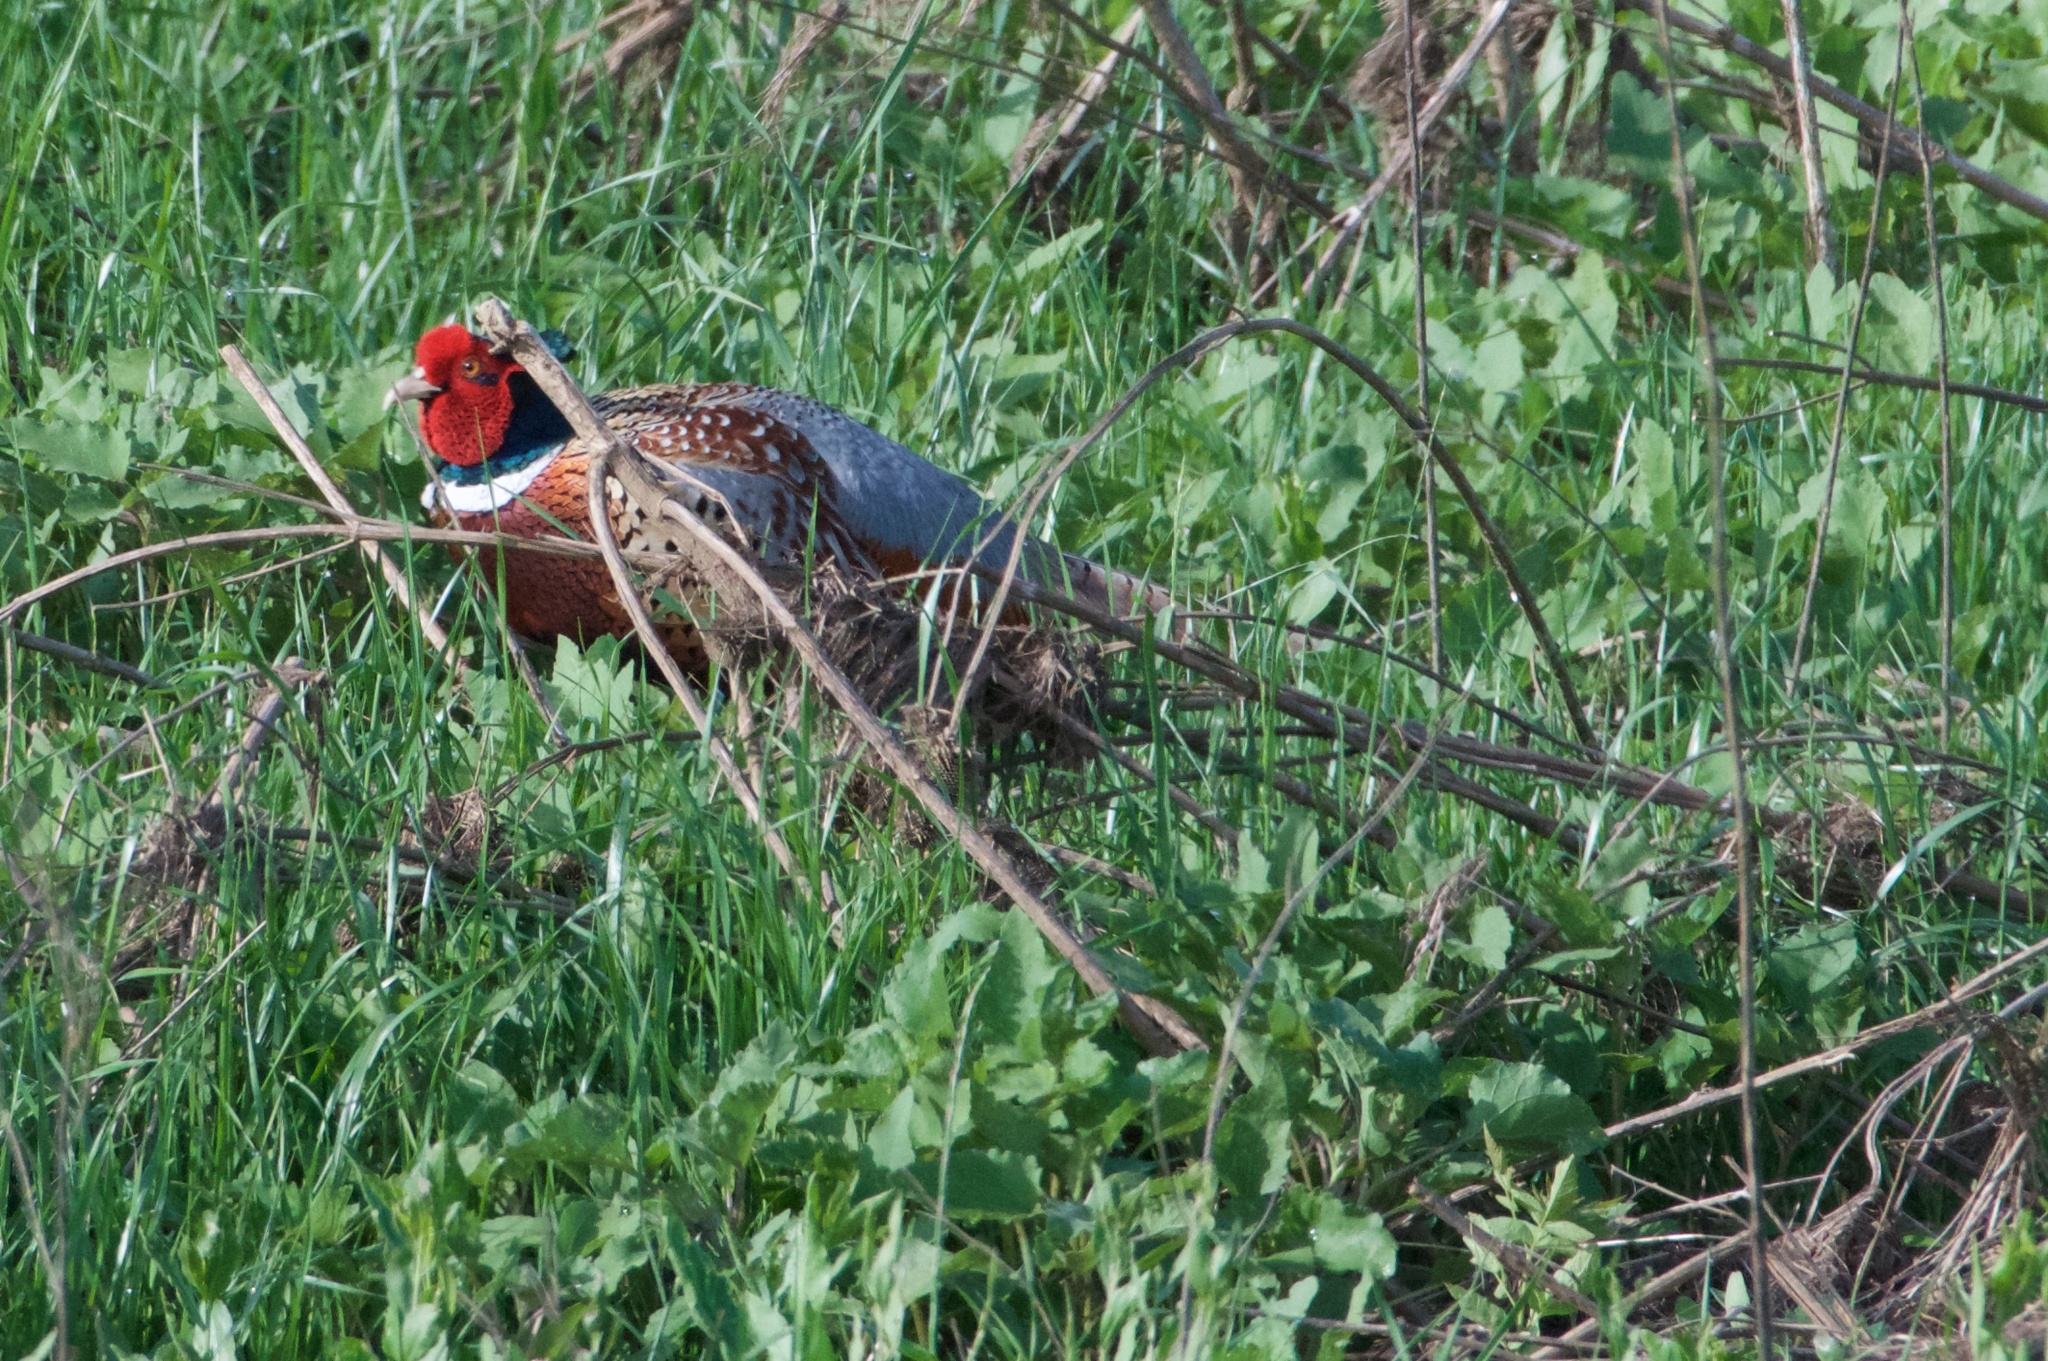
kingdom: Animalia
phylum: Chordata
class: Aves
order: Galliformes
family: Phasianidae
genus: Phasianus
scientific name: Phasianus colchicus
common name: Common pheasant
